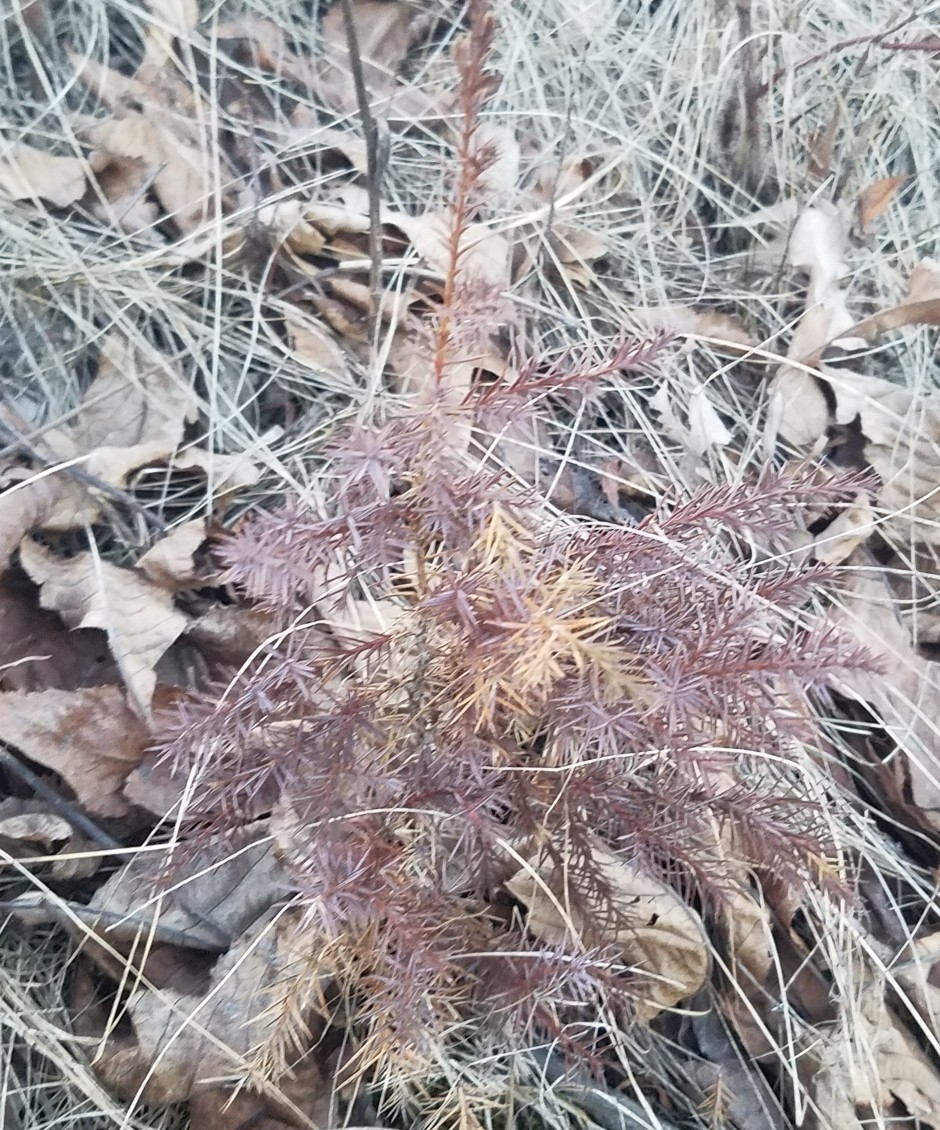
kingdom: Plantae
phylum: Tracheophyta
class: Pinopsida
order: Pinales
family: Cupressaceae
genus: Juniperus
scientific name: Juniperus virginiana
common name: Red juniper
